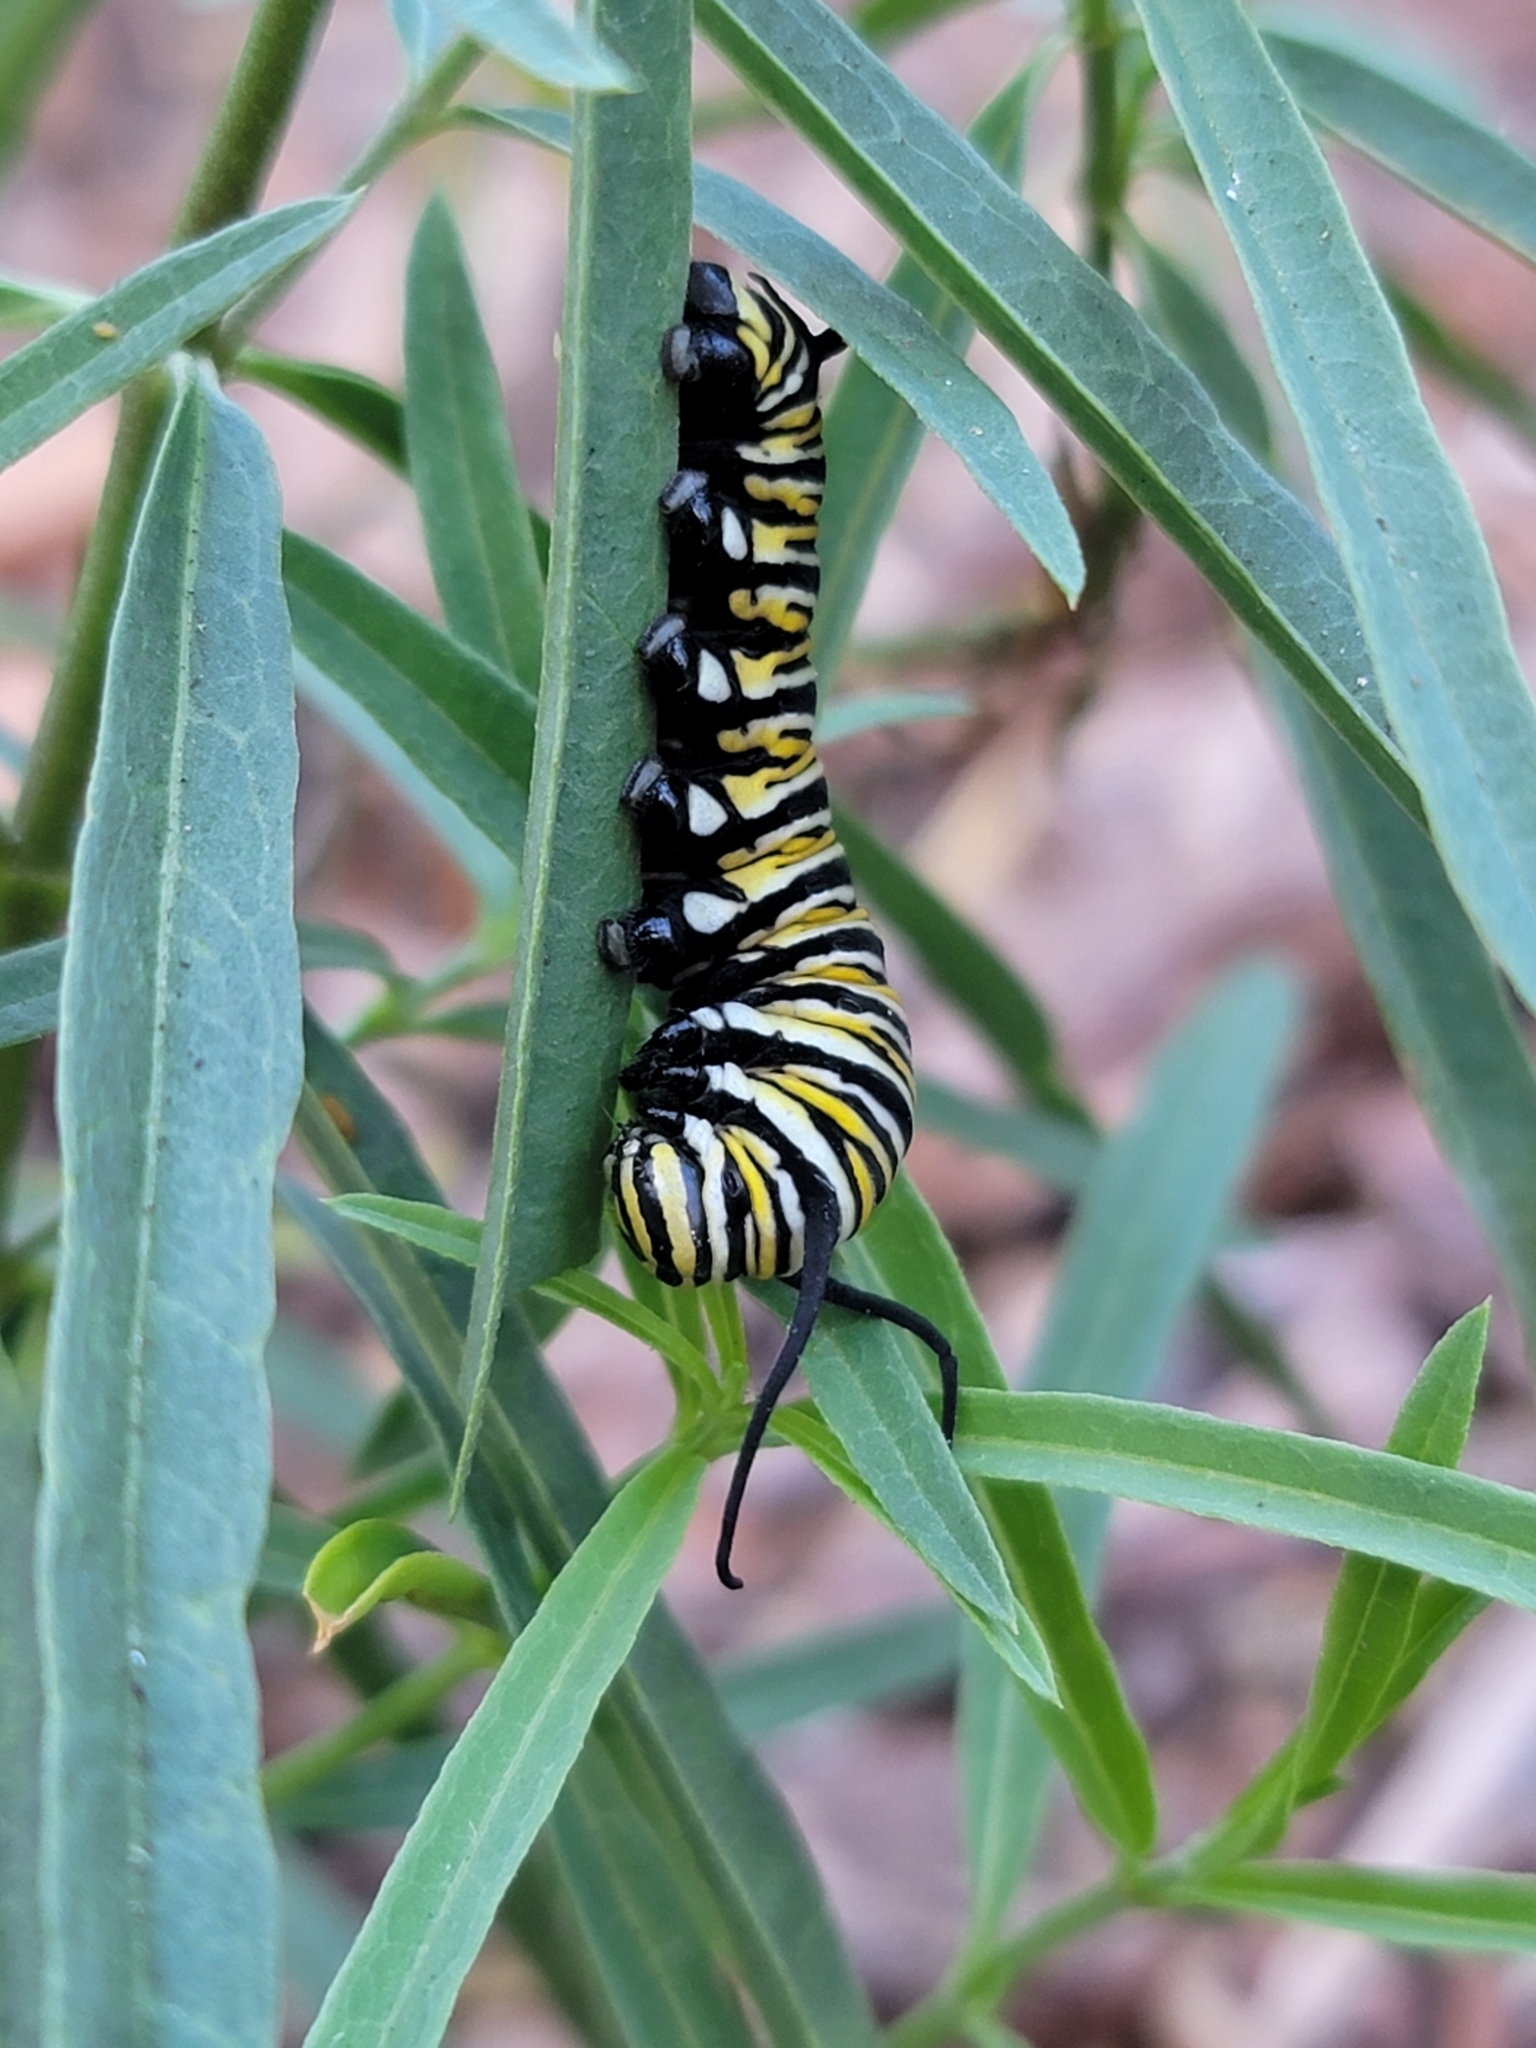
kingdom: Animalia
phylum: Arthropoda
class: Insecta
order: Lepidoptera
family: Nymphalidae
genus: Danaus
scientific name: Danaus plexippus
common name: Monarch
